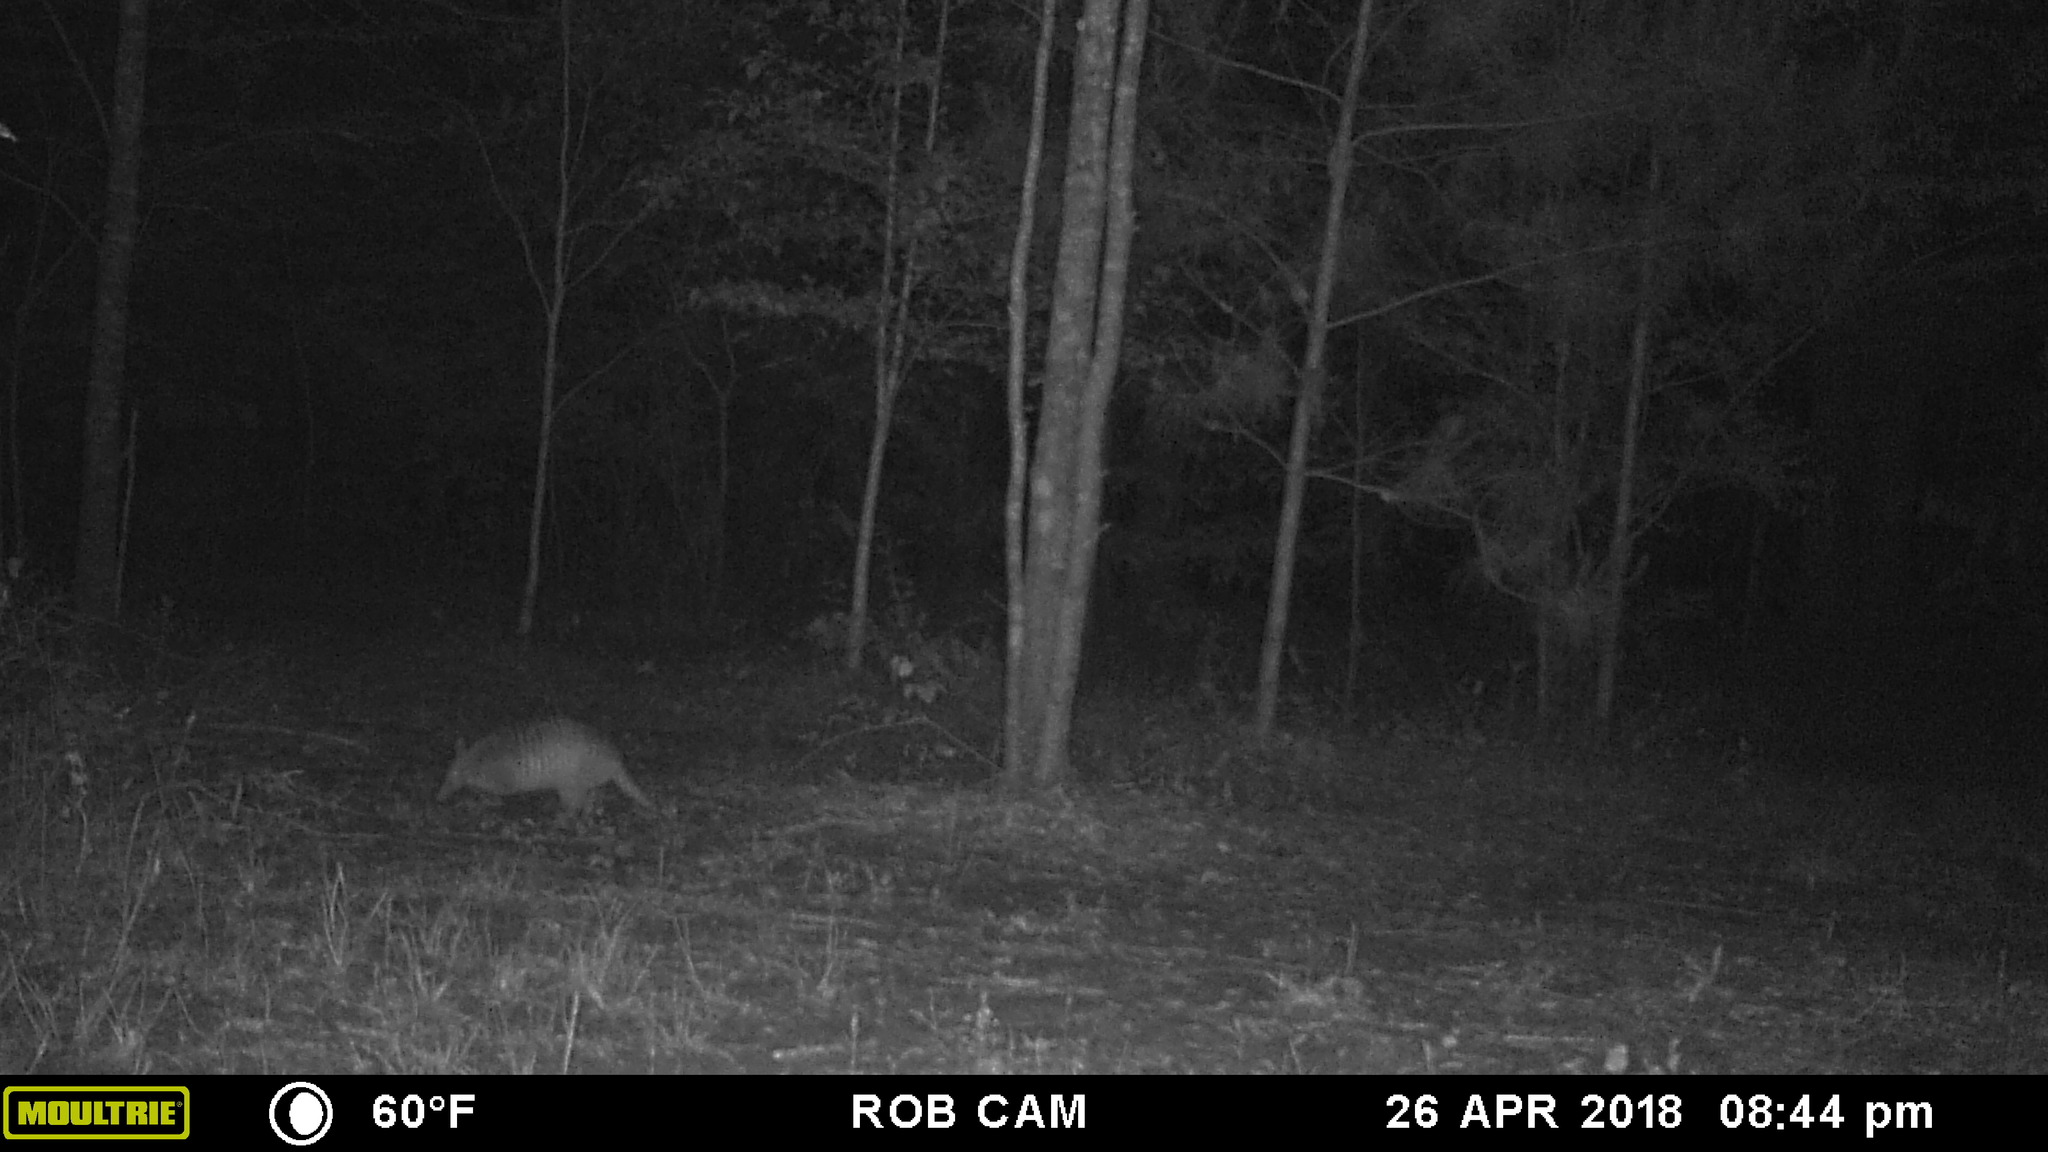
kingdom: Animalia
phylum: Chordata
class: Mammalia
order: Cingulata
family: Dasypodidae
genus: Dasypus
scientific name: Dasypus novemcinctus
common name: Nine-banded armadillo
